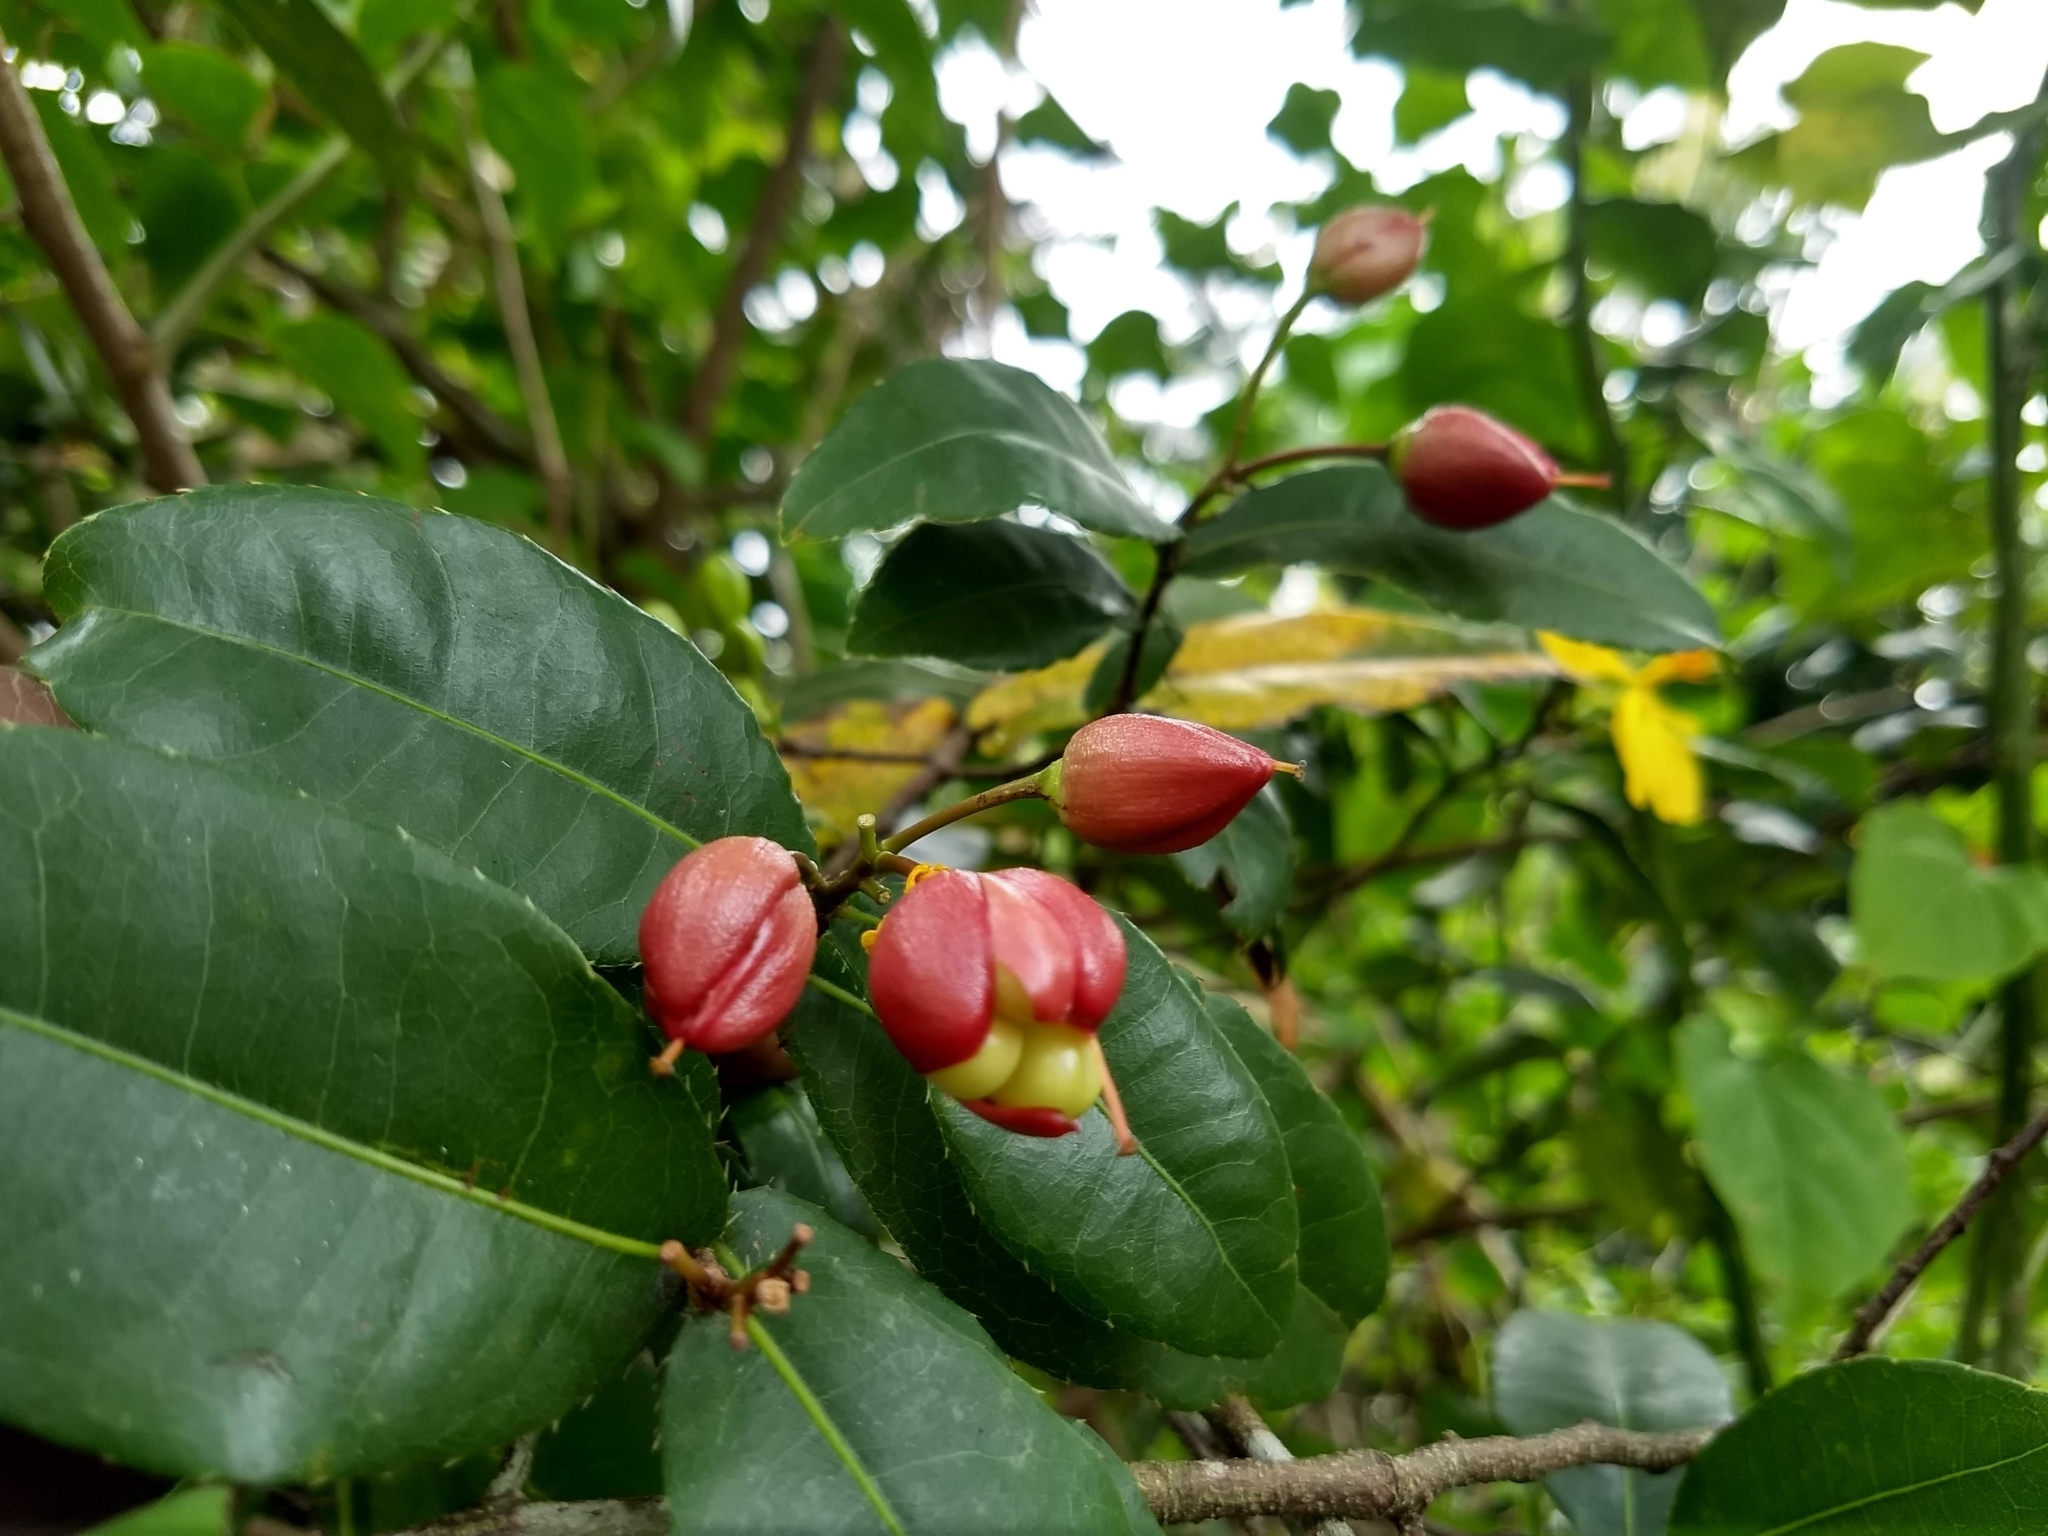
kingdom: Plantae
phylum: Tracheophyta
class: Magnoliopsida
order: Malpighiales
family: Ochnaceae
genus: Ochna
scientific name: Ochna serrulata
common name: Mickey mouse plant
